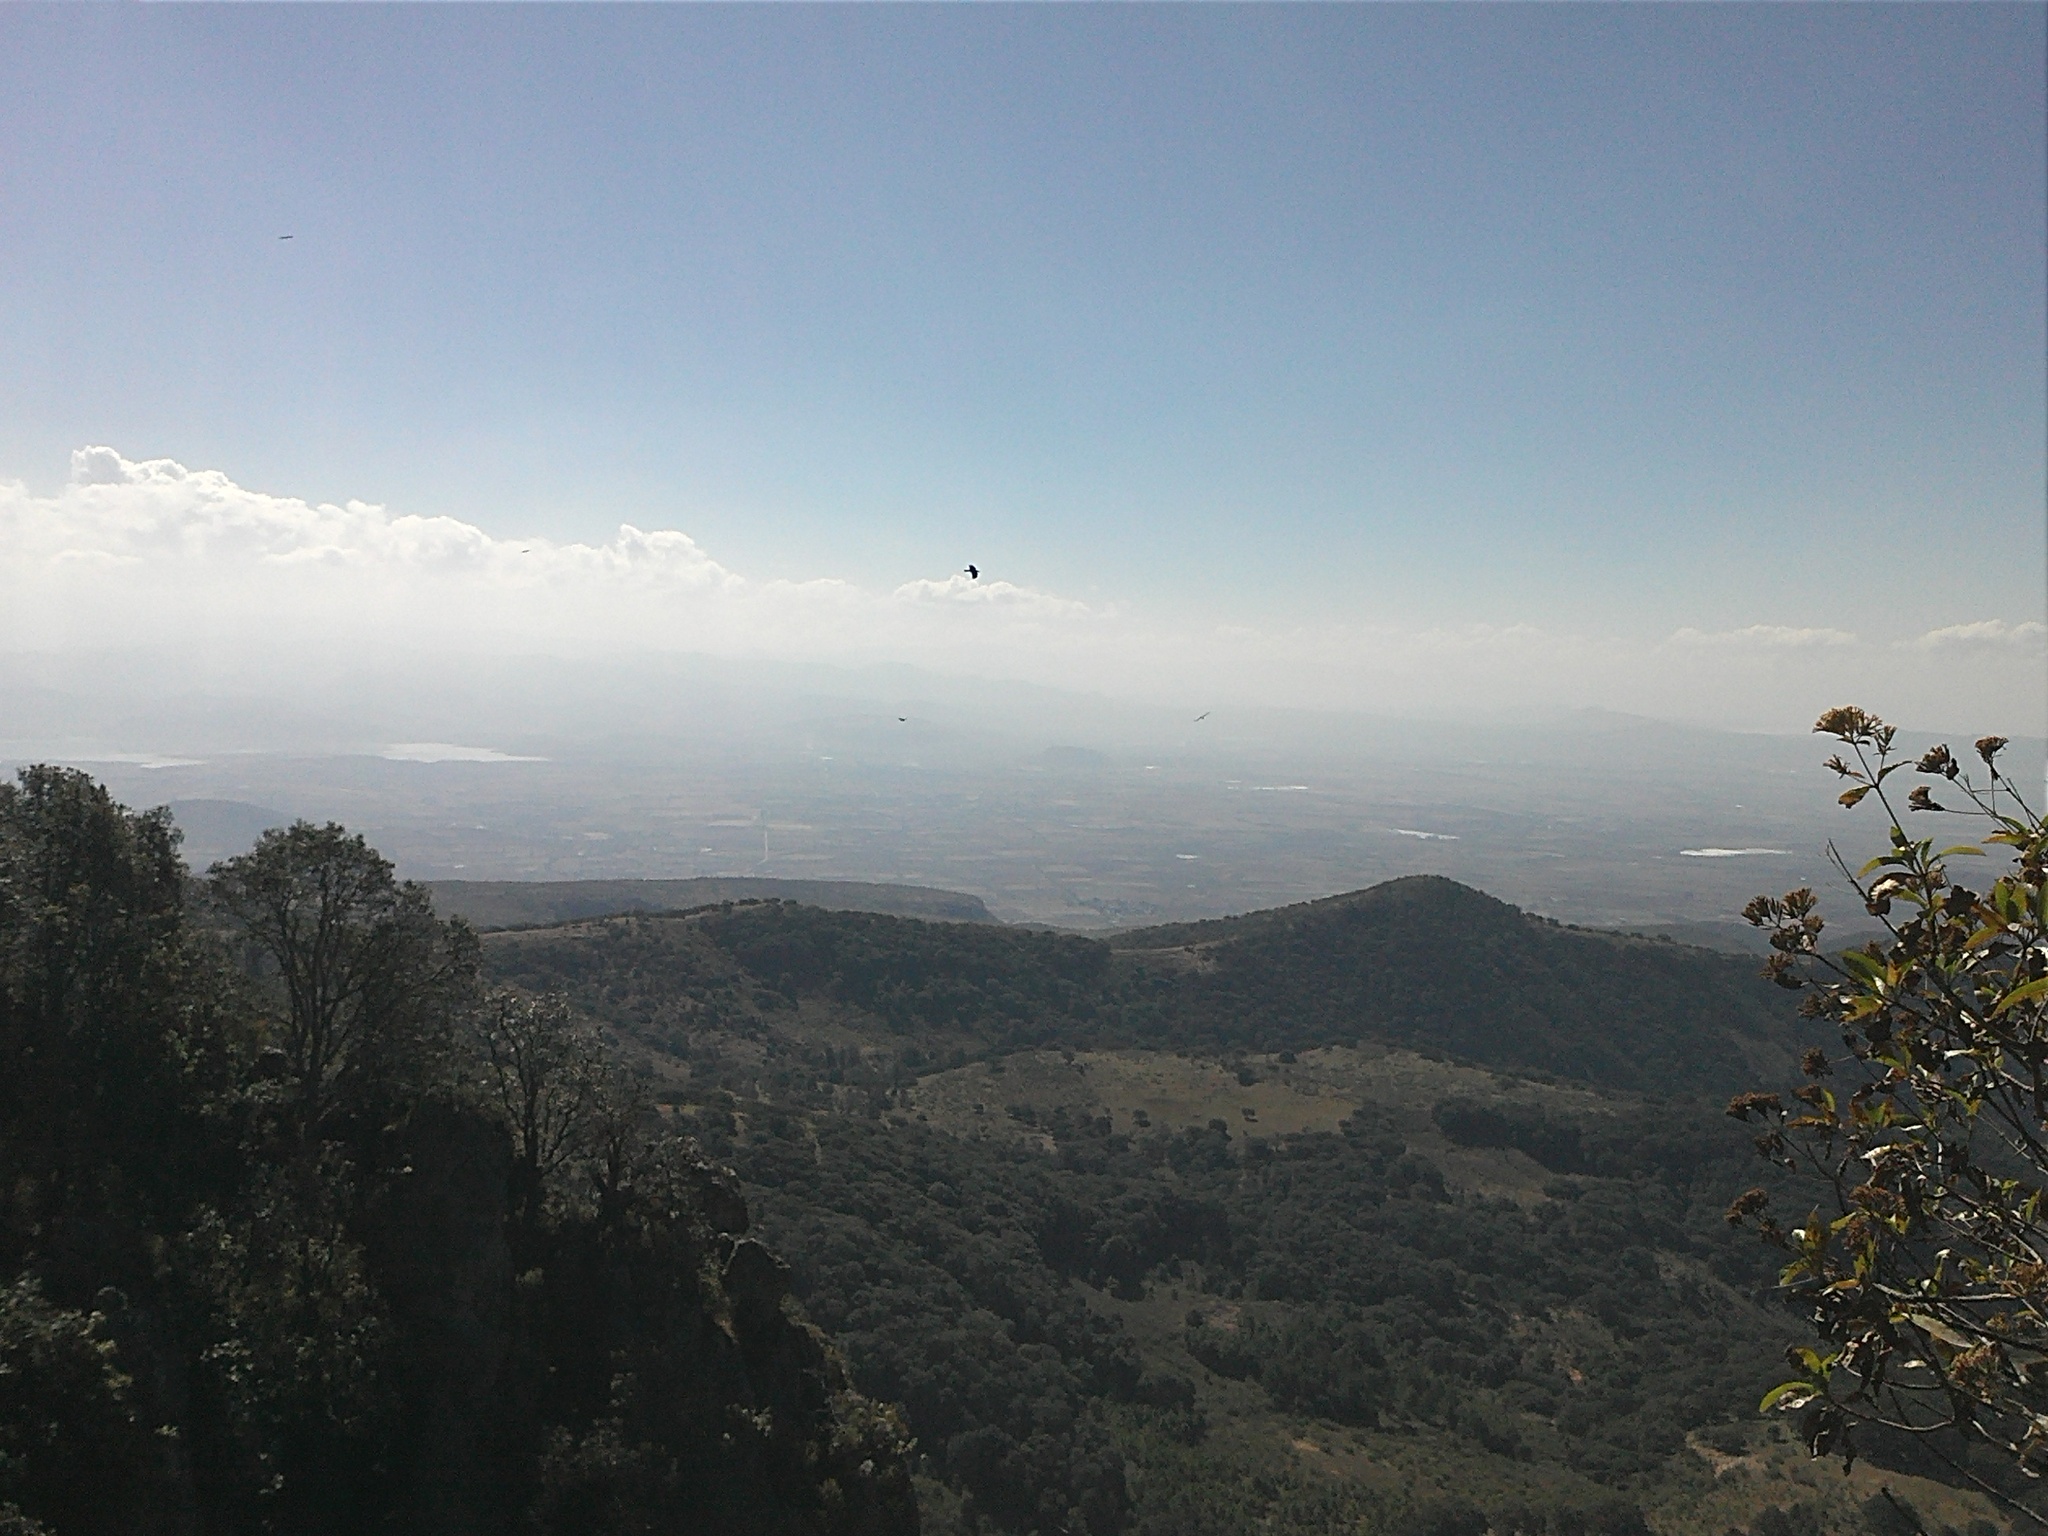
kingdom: Animalia
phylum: Chordata
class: Aves
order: Passeriformes
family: Corvidae
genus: Corvus
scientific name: Corvus corax
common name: Common raven
